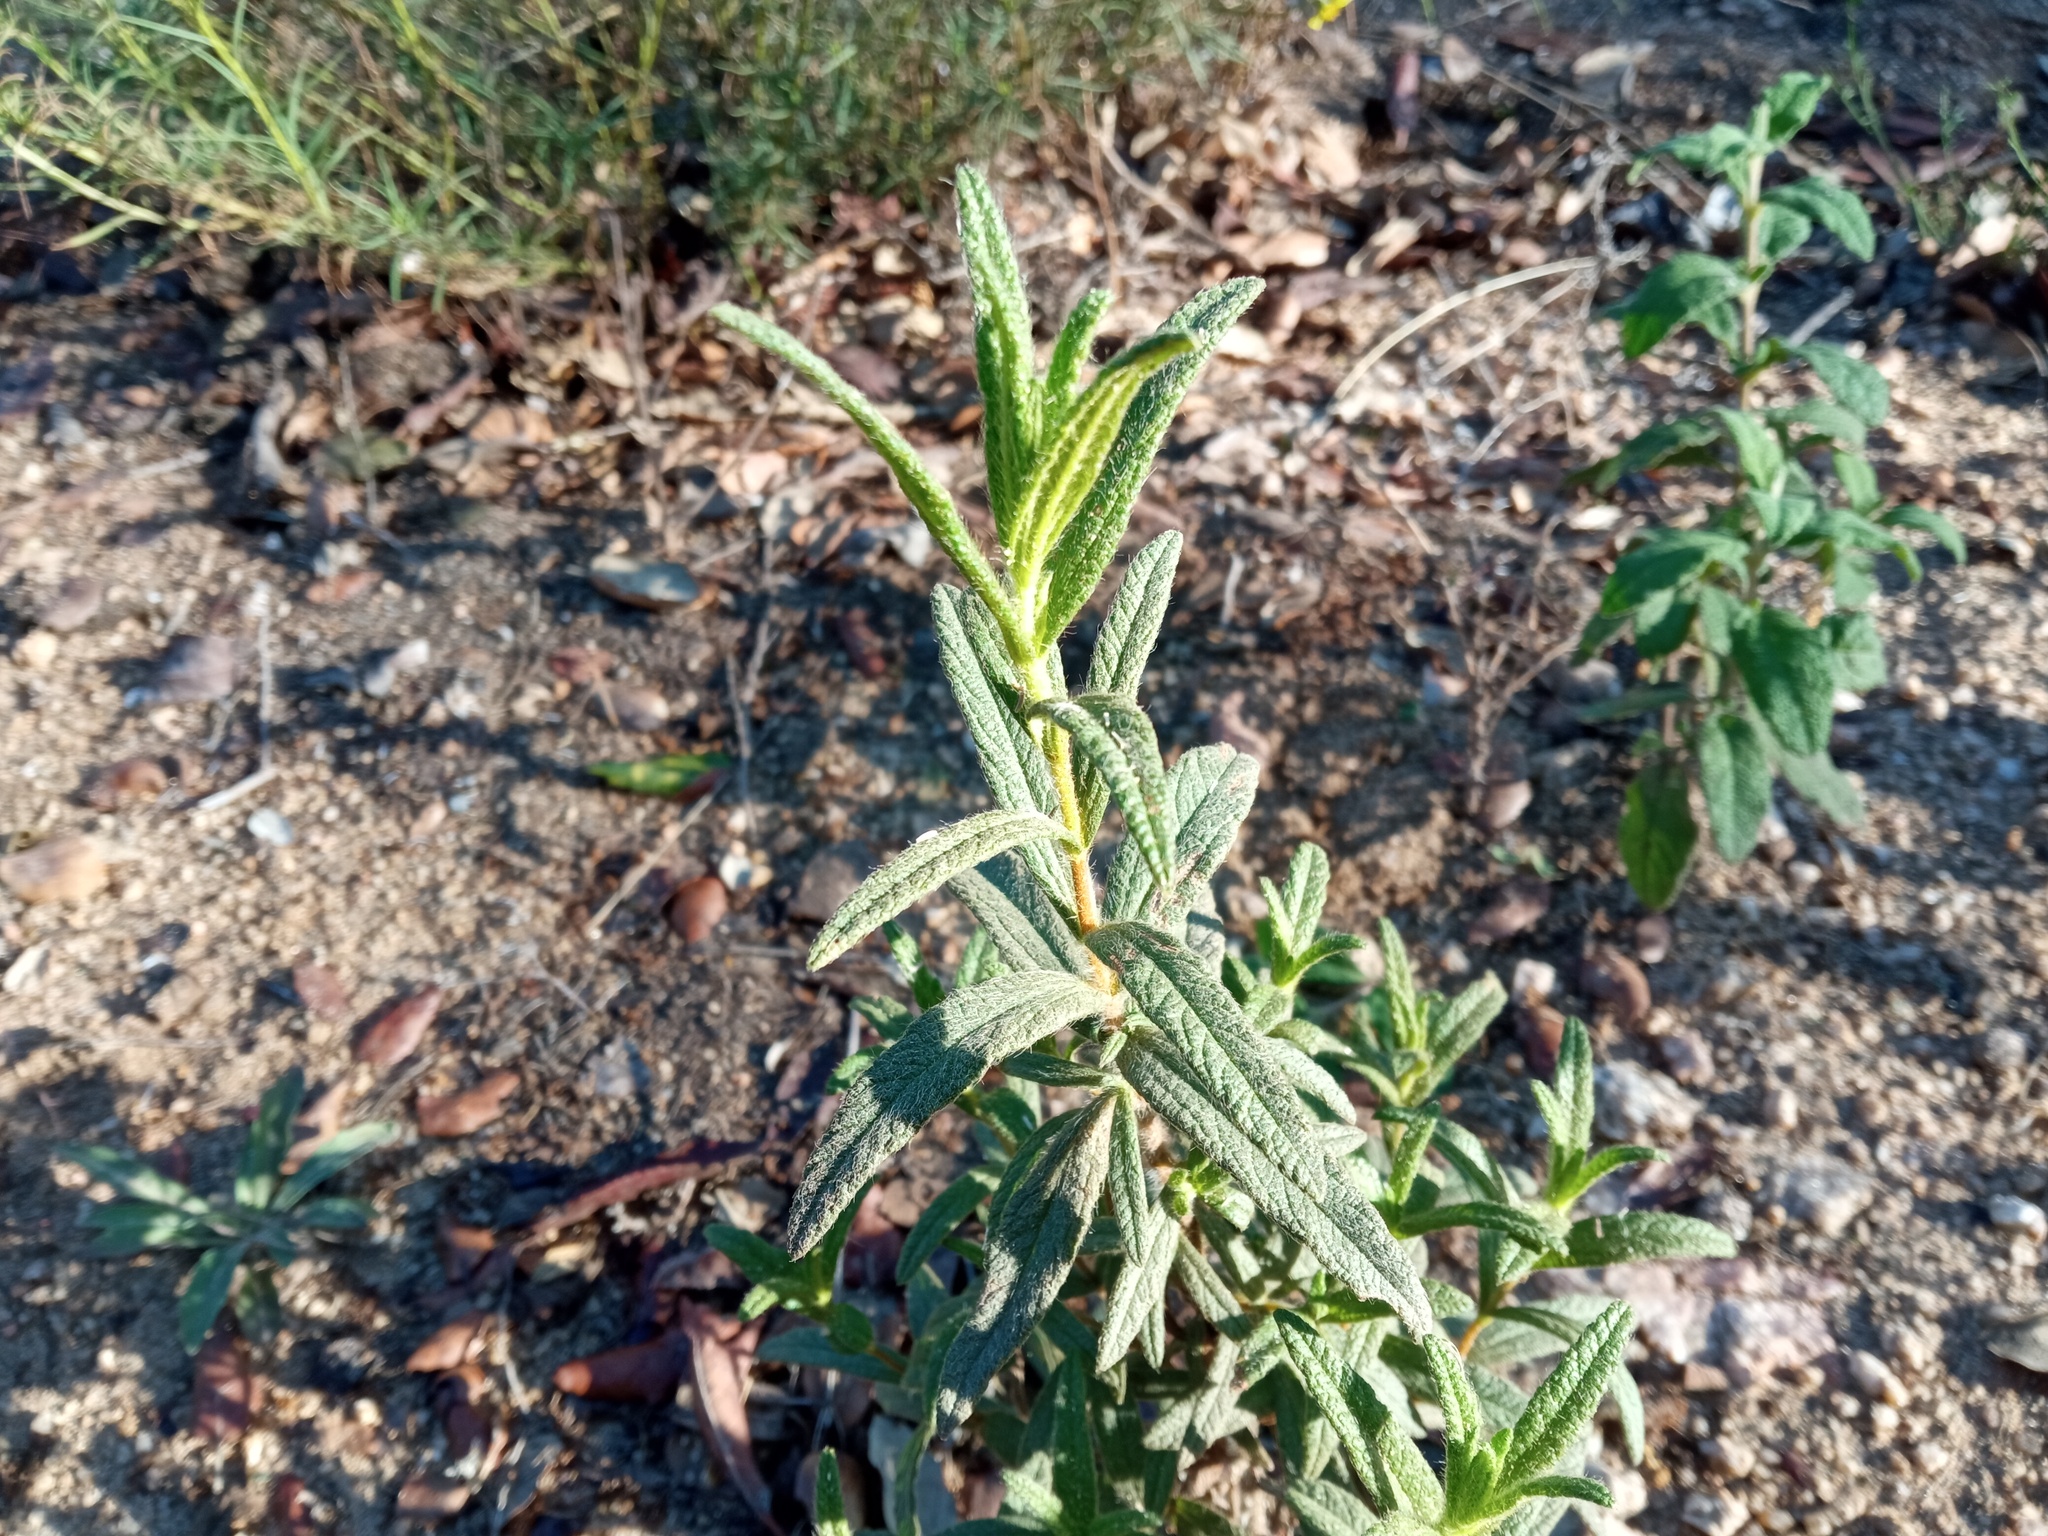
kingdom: Plantae
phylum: Tracheophyta
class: Magnoliopsida
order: Malvales
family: Cistaceae
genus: Cistus
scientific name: Cistus monspeliensis
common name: Montpelier cistus
